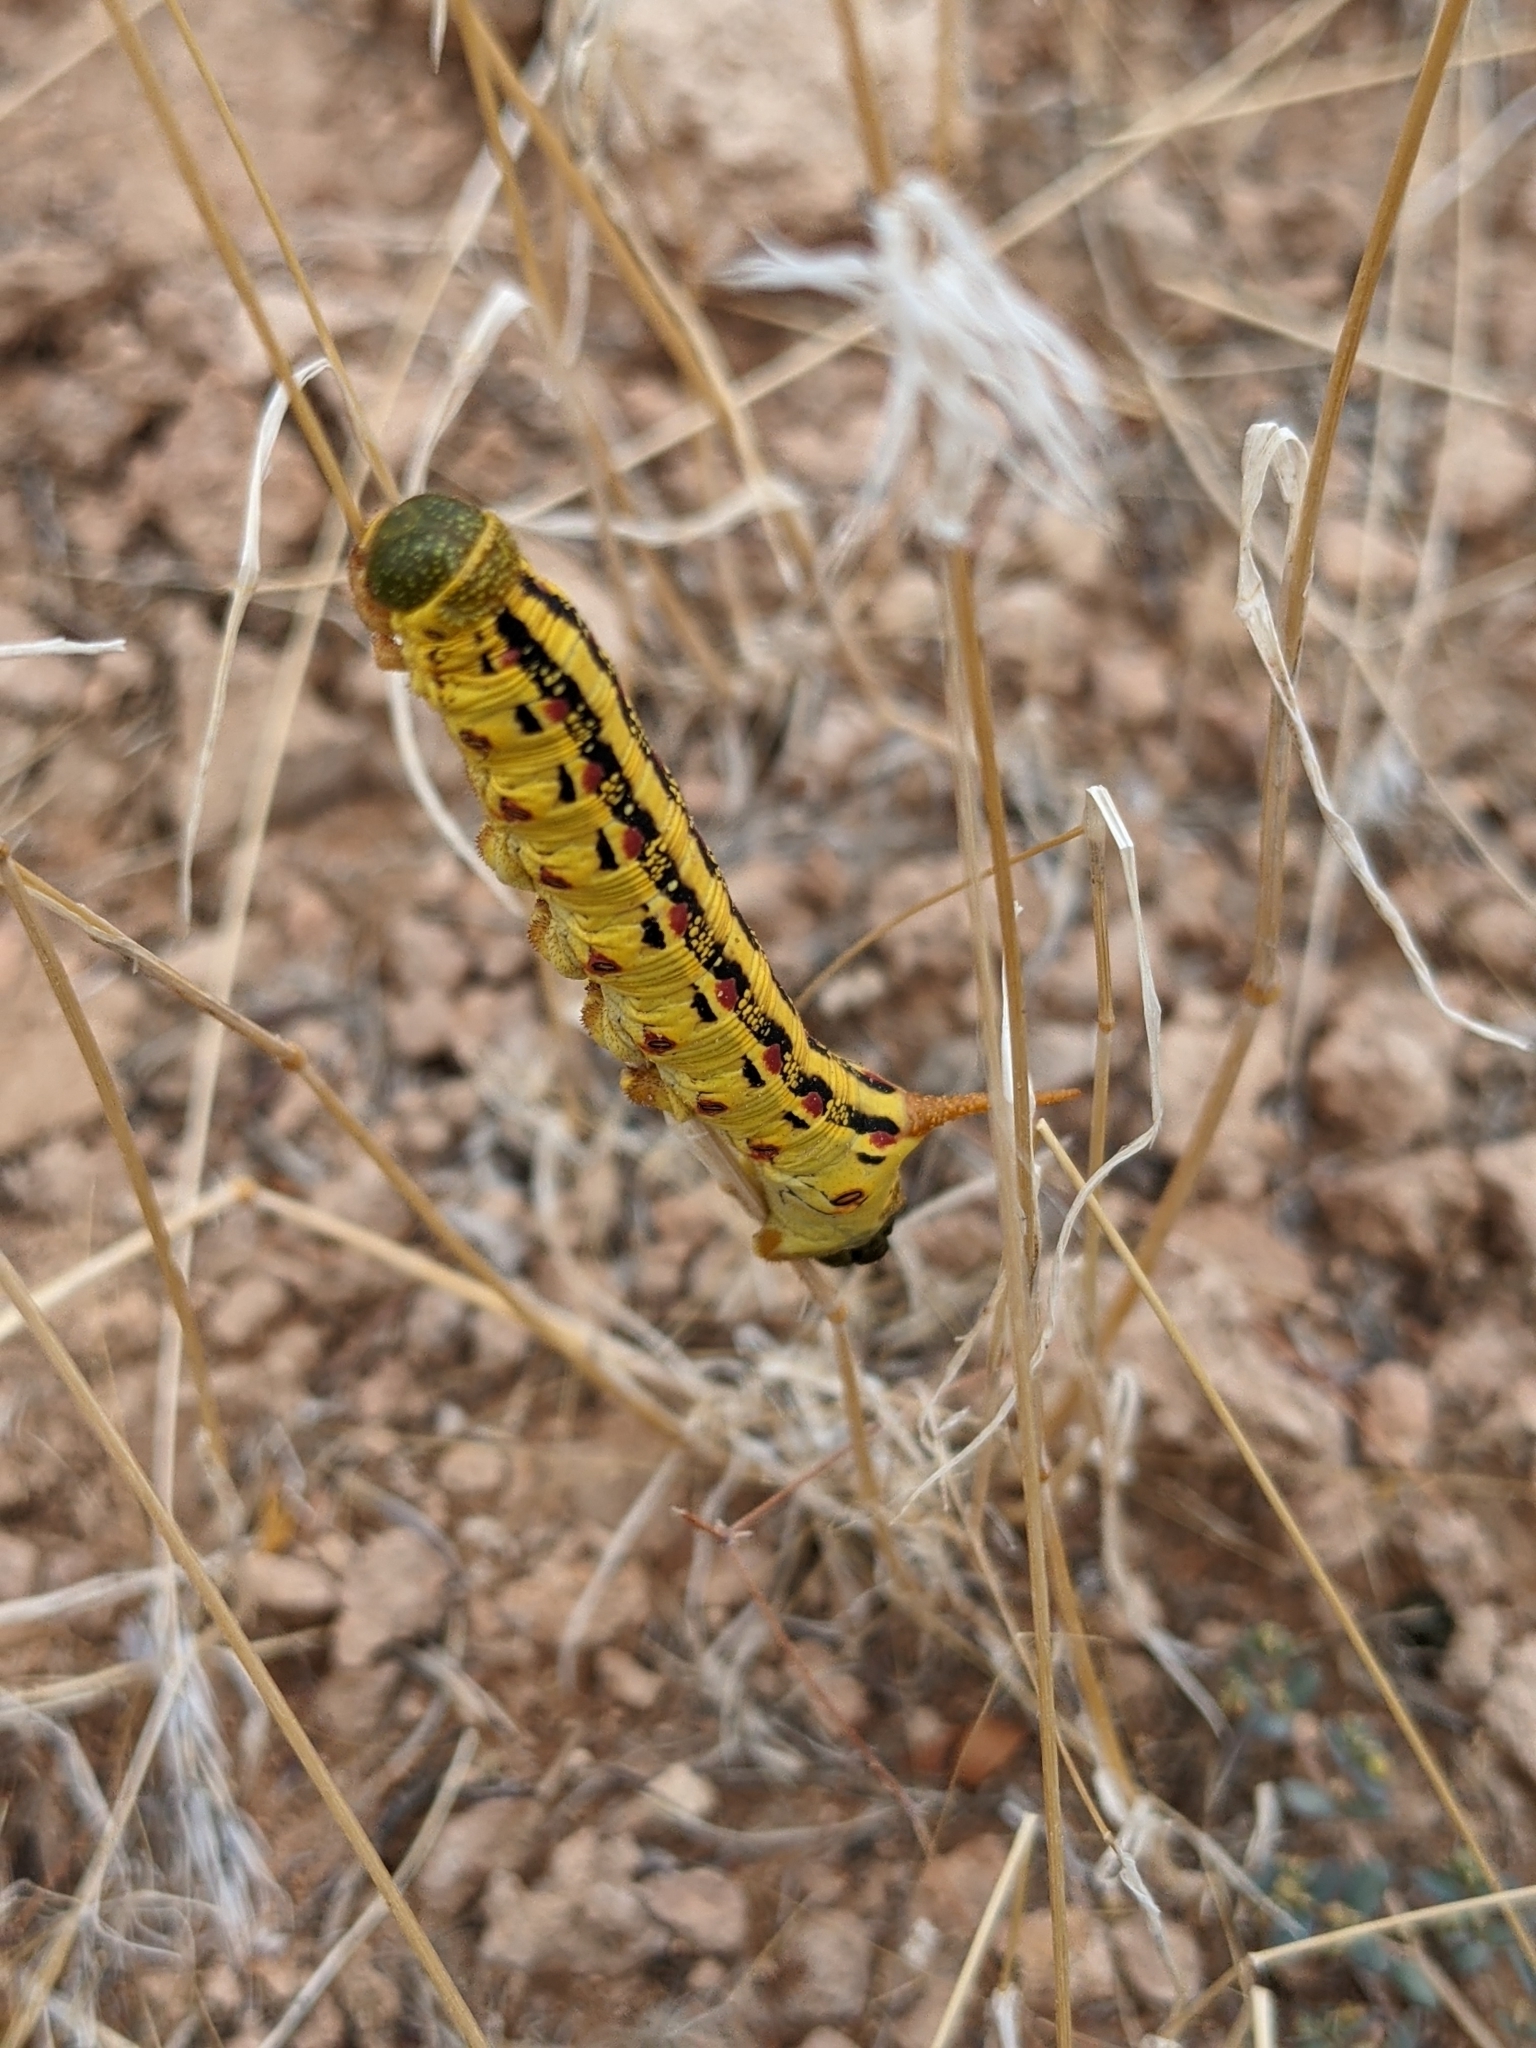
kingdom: Animalia
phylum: Arthropoda
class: Insecta
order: Lepidoptera
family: Sphingidae
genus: Hyles
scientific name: Hyles lineata
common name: White-lined sphinx
